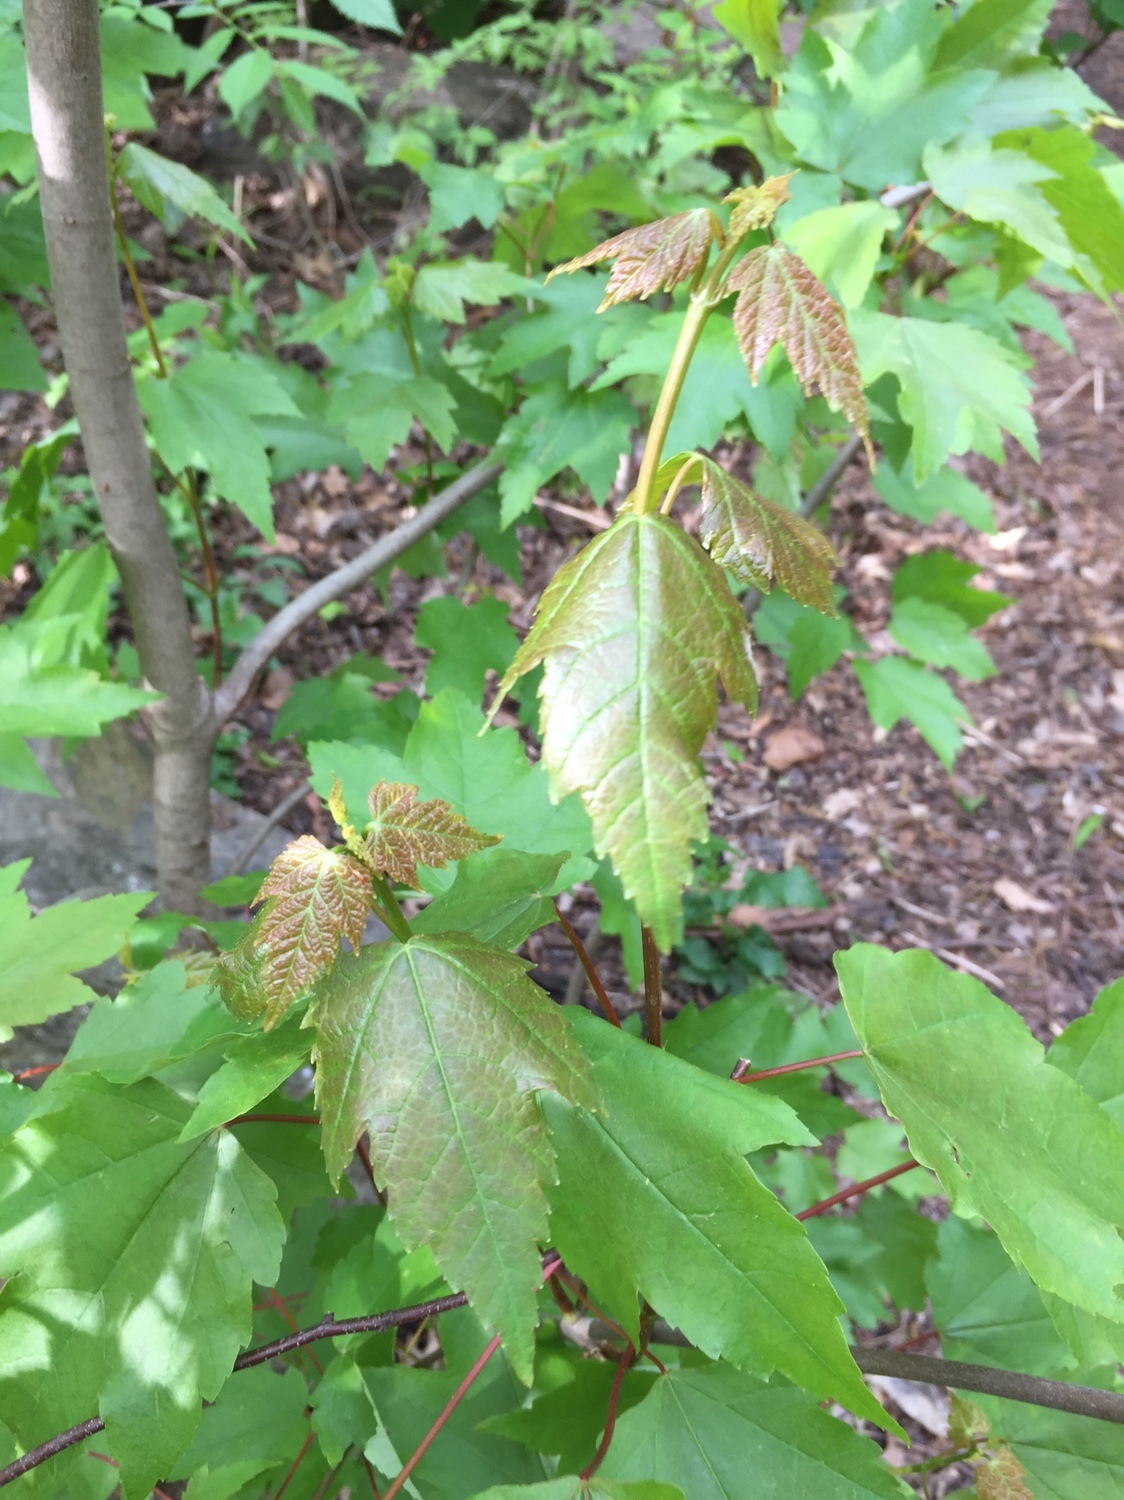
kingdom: Plantae
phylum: Tracheophyta
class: Magnoliopsida
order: Sapindales
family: Sapindaceae
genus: Acer
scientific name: Acer rubrum
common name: Red maple
